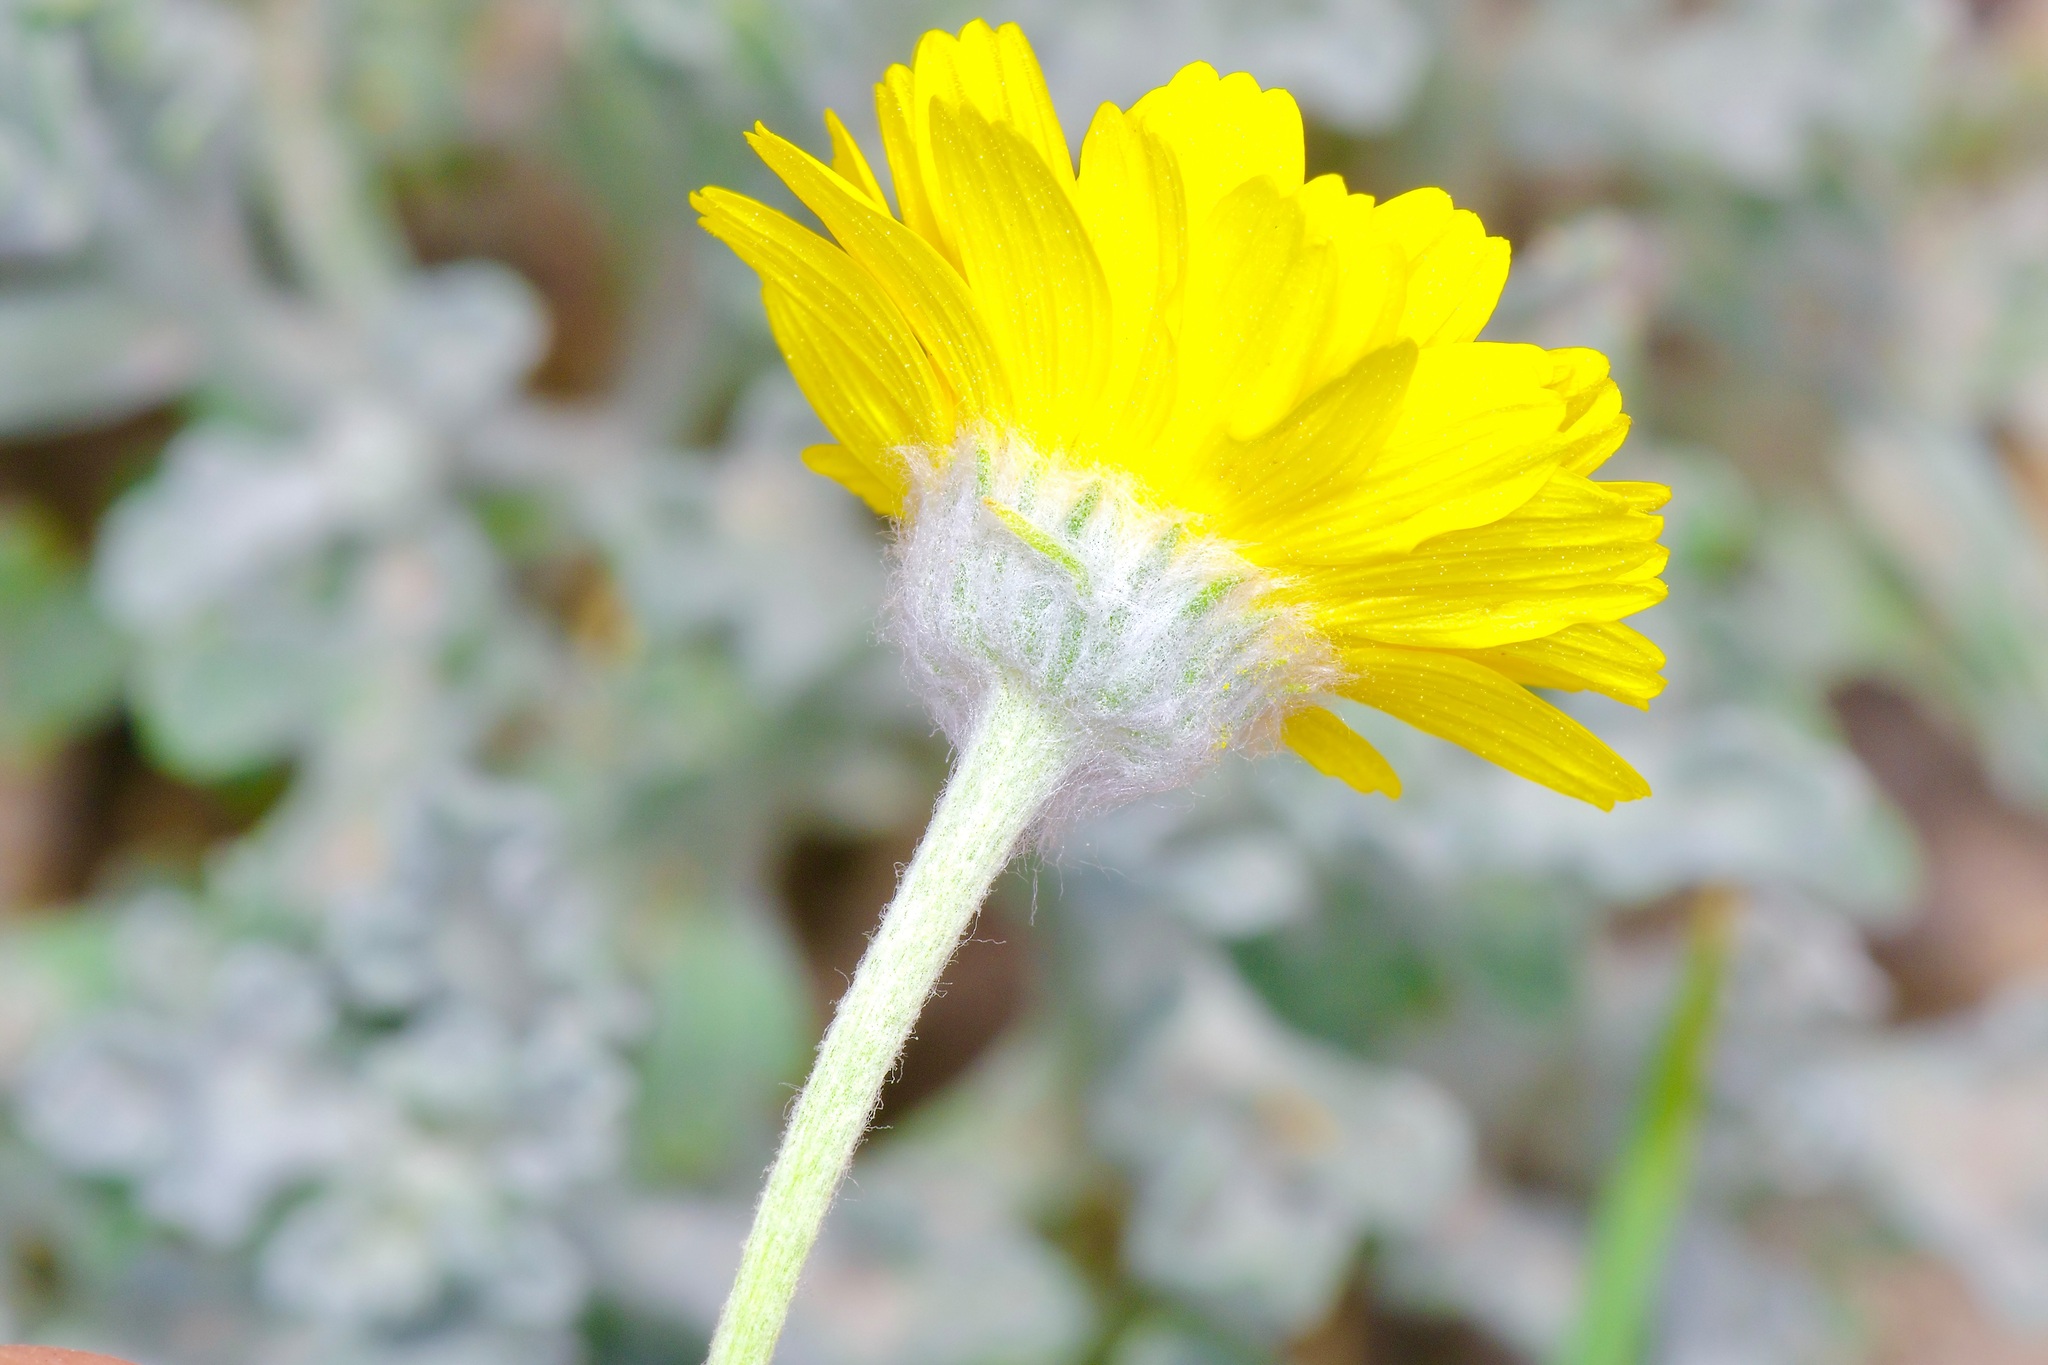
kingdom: Plantae
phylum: Tracheophyta
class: Magnoliopsida
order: Asterales
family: Asteraceae
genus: Baileya
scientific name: Baileya multiradiata
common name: Desert-marigold
